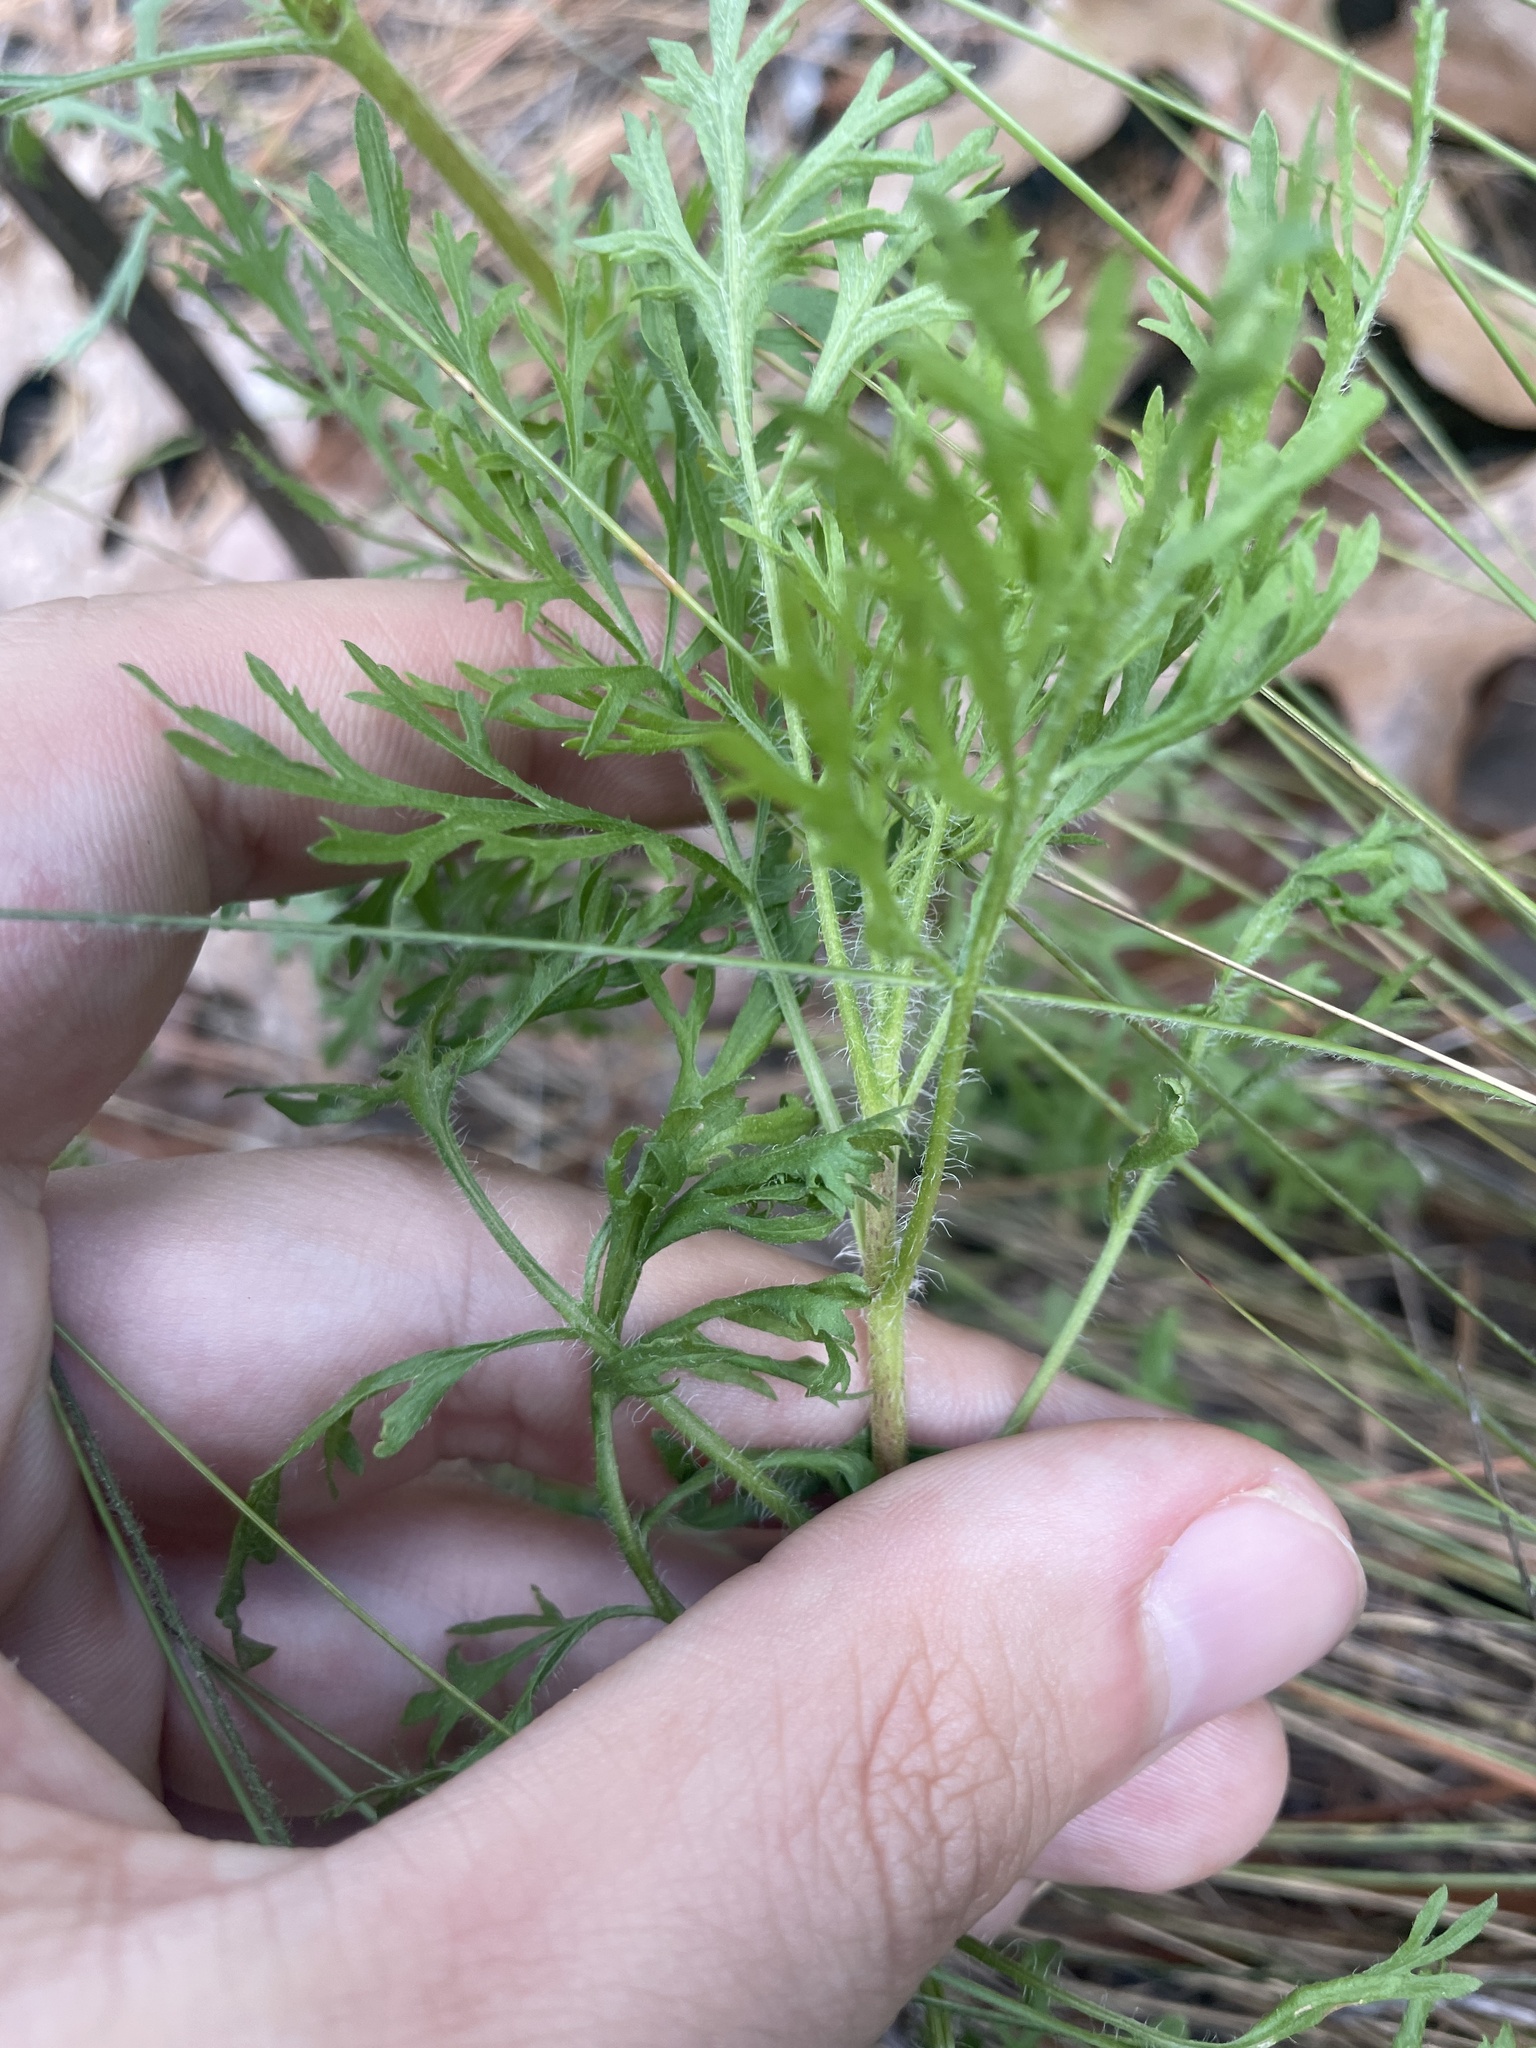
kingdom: Plantae
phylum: Tracheophyta
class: Magnoliopsida
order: Asterales
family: Asteraceae
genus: Eupatorium
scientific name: Eupatorium compositifolium
